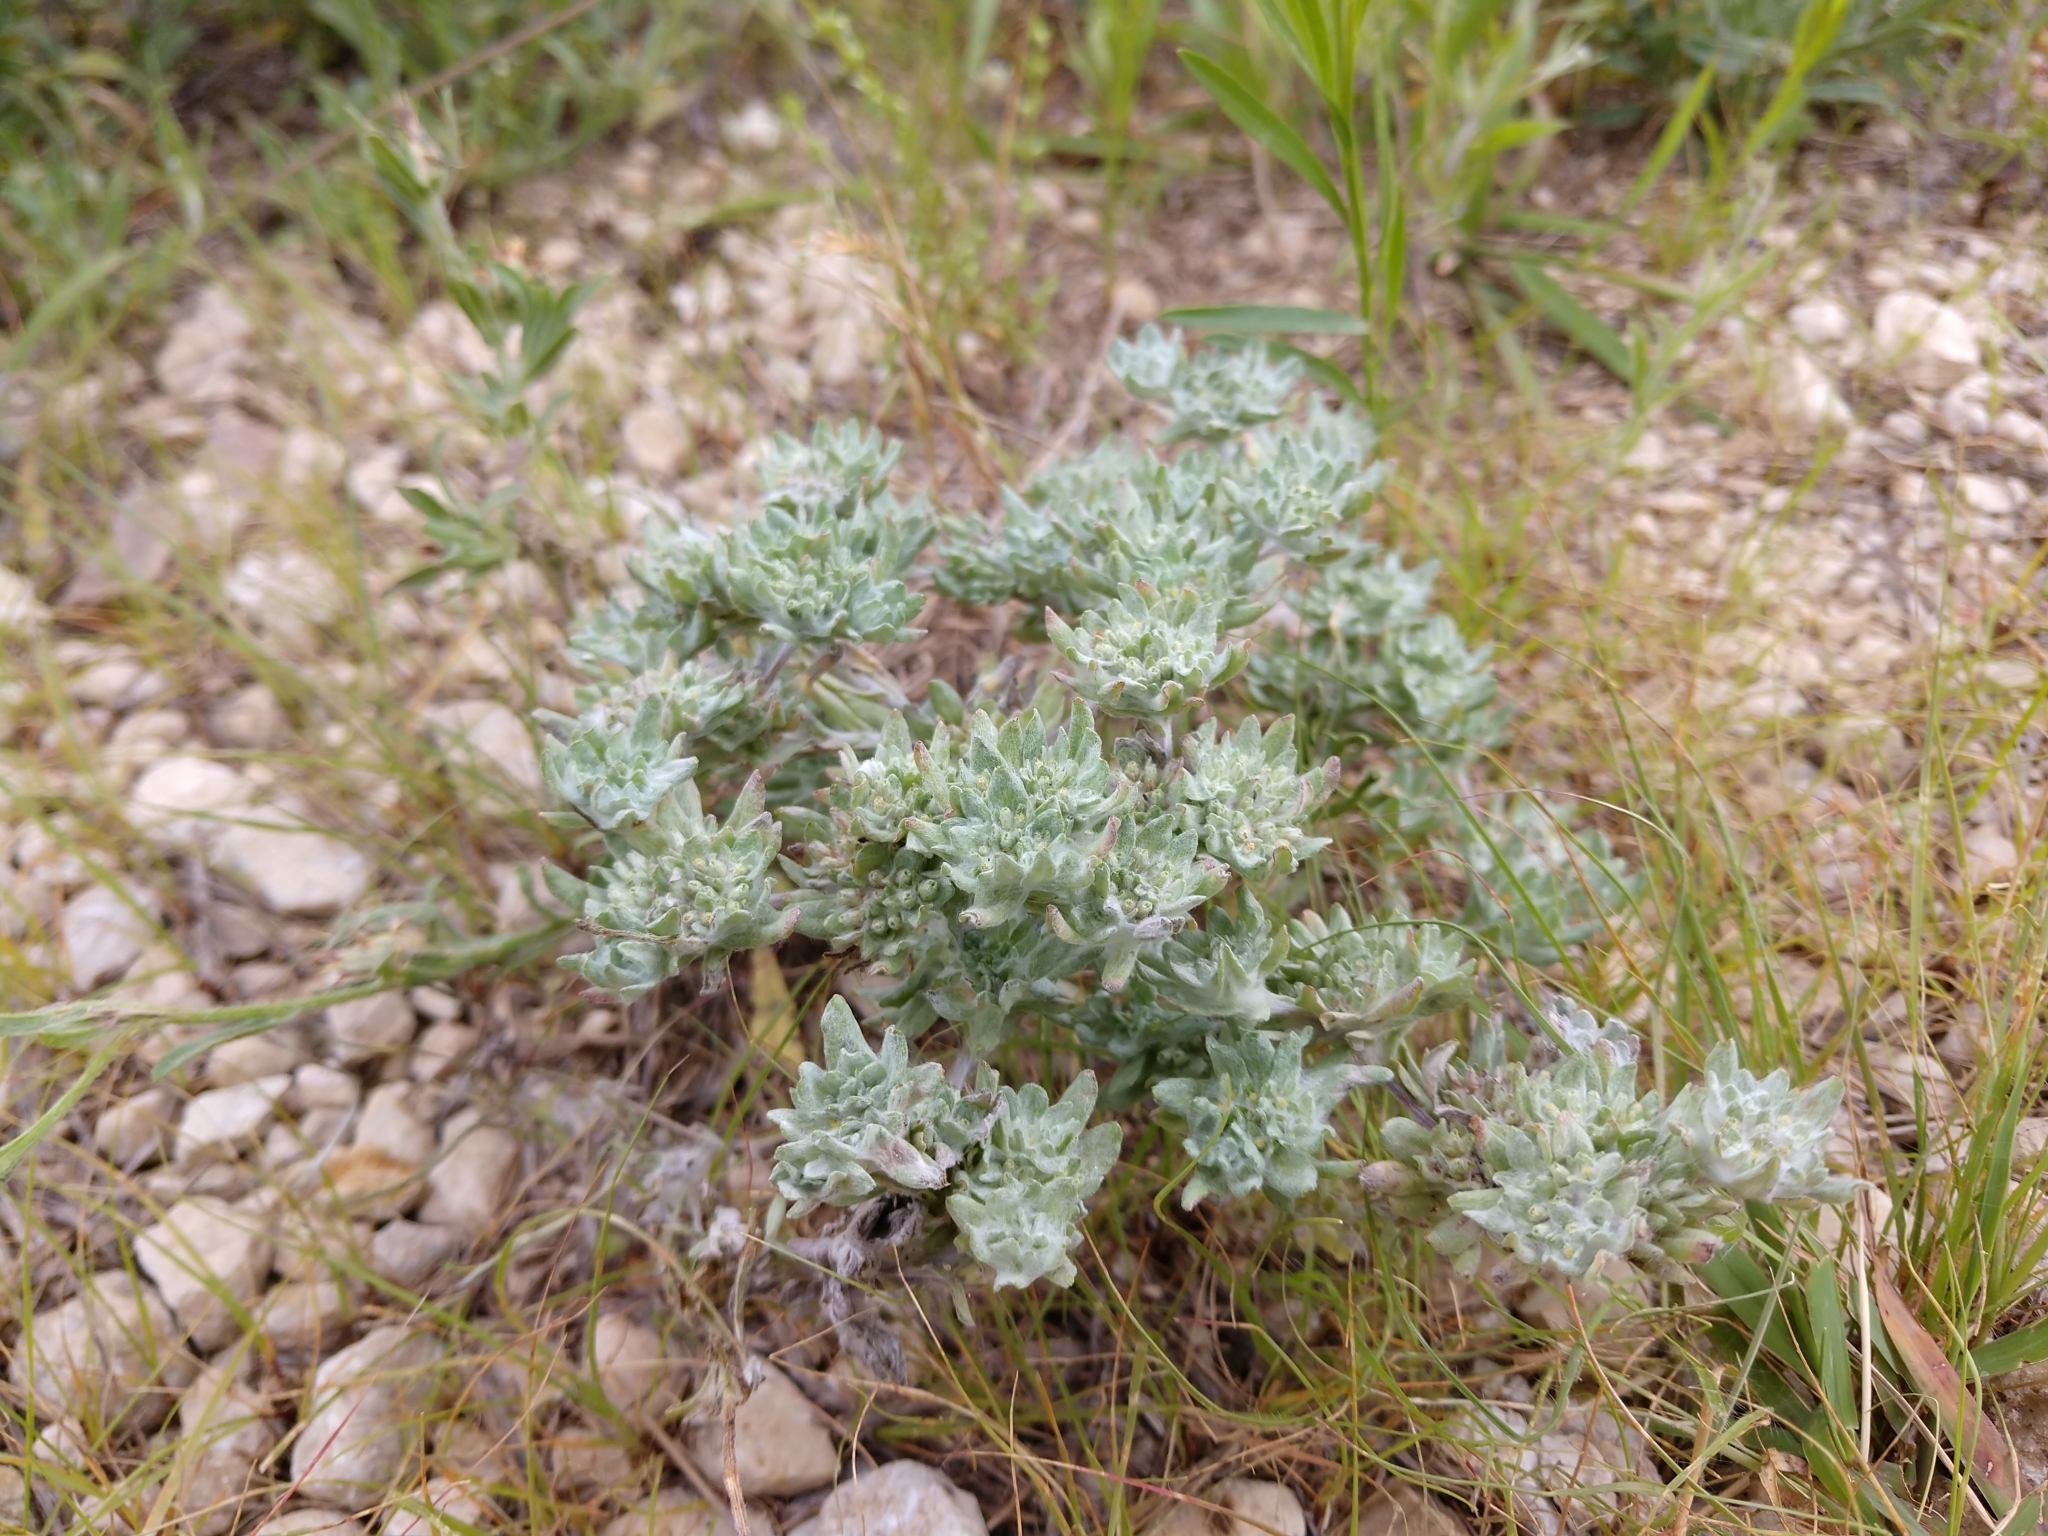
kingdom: Plantae
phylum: Tracheophyta
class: Magnoliopsida
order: Asterales
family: Asteraceae
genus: Diaperia
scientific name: Diaperia prolifera
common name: Big-head rabbit-tobacco
